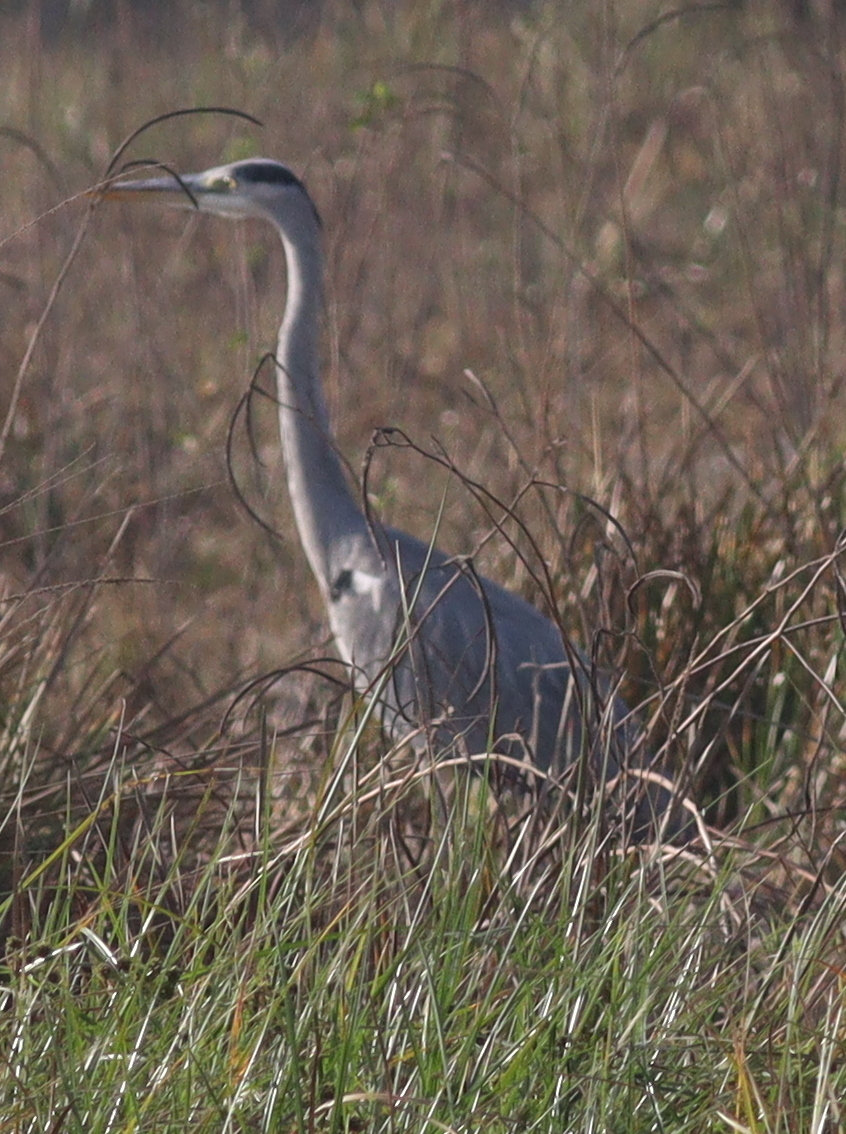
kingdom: Animalia
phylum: Chordata
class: Aves
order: Pelecaniformes
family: Ardeidae
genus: Ardea
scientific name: Ardea cinerea
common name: Grey heron
